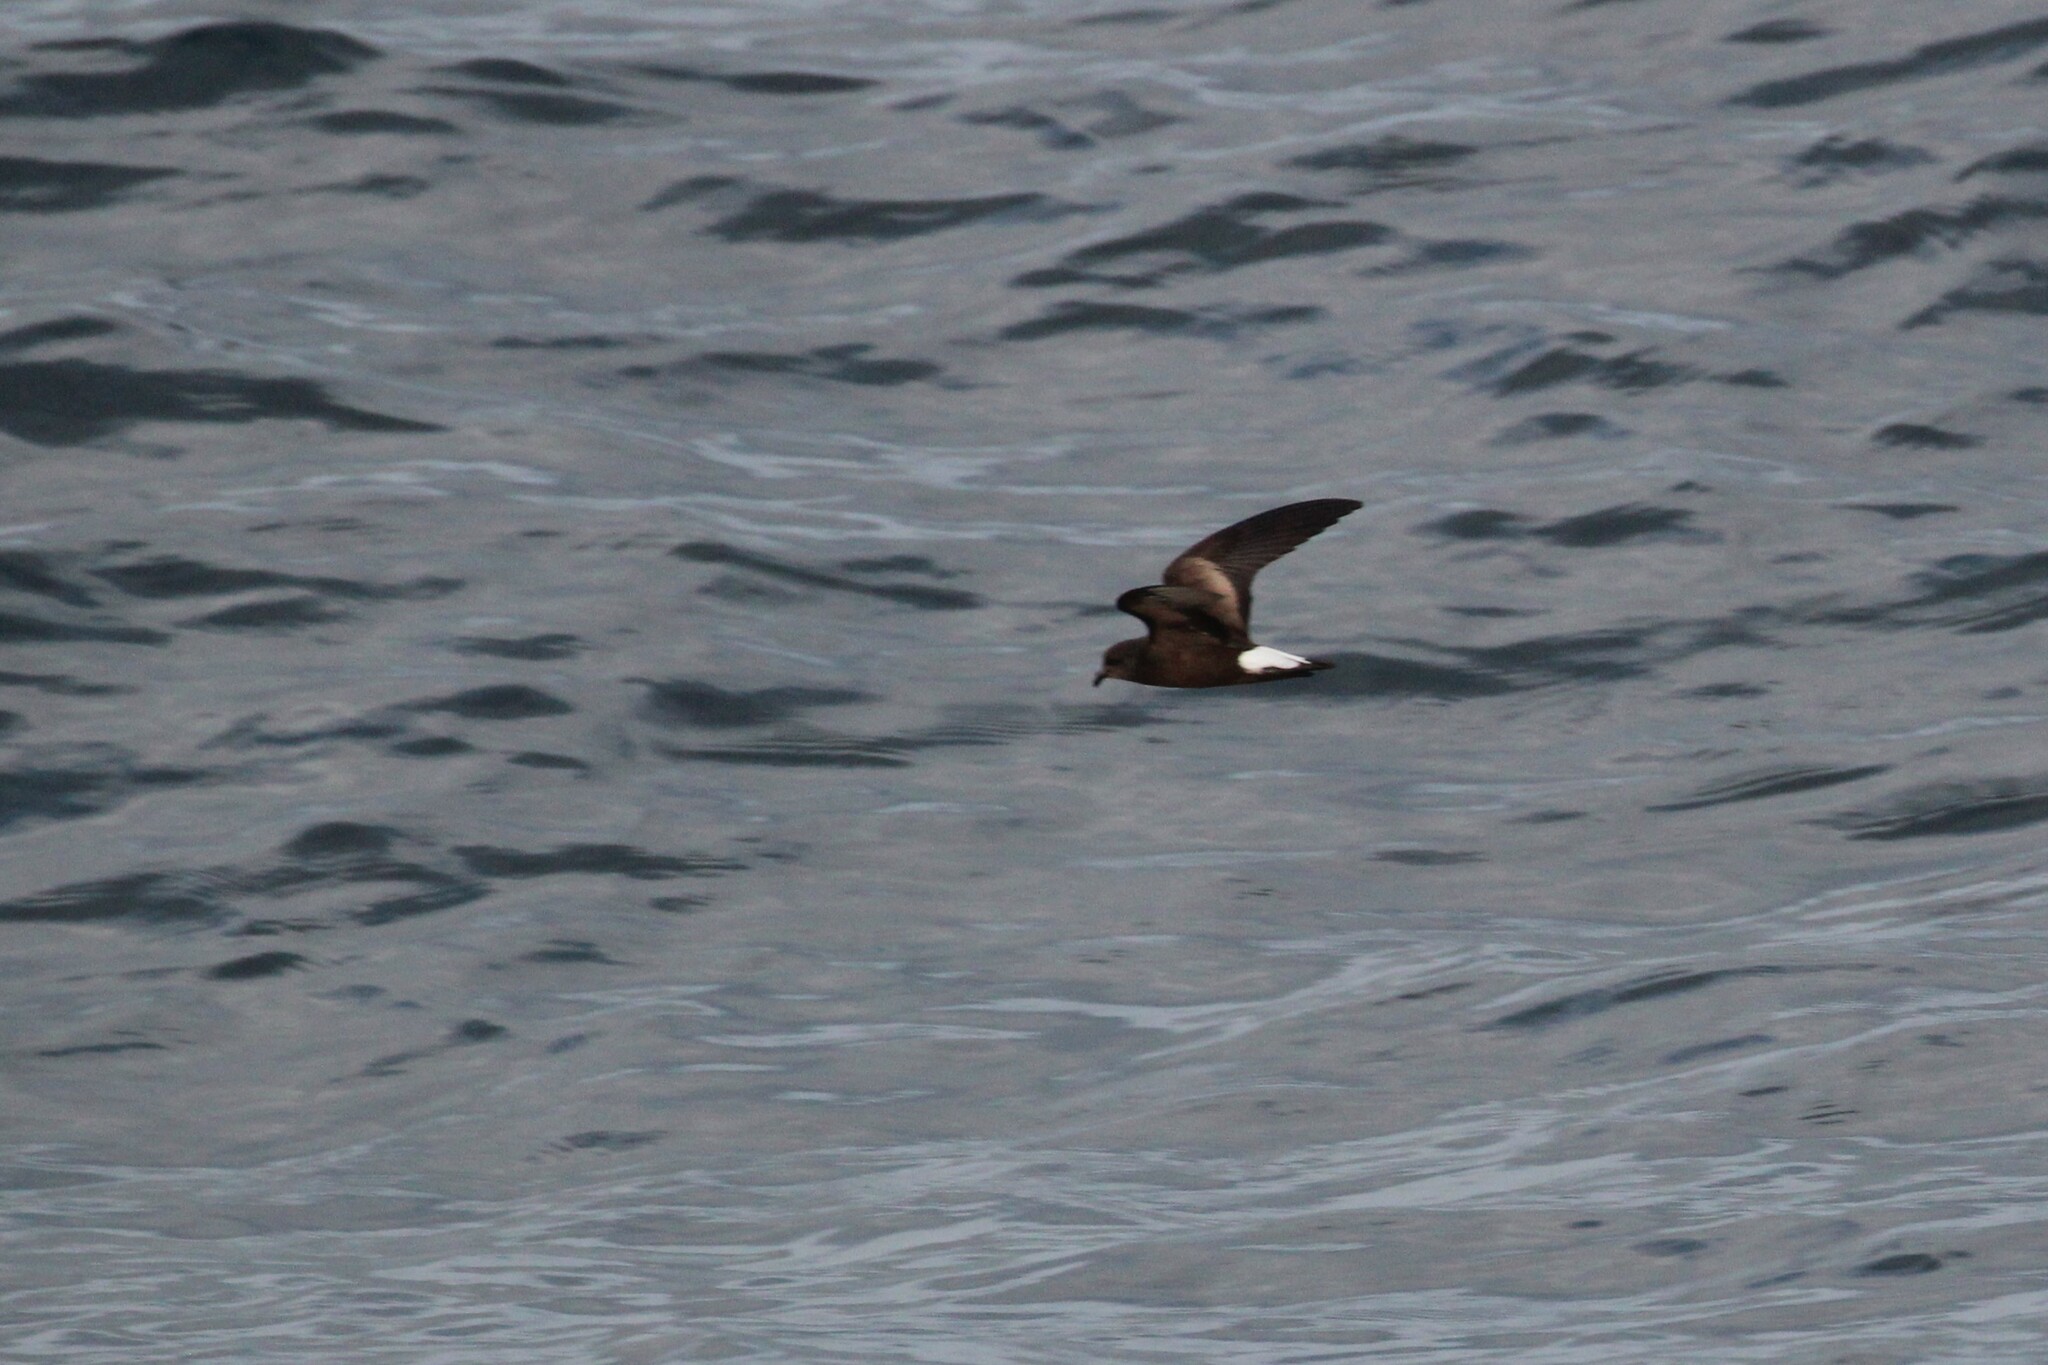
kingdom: Animalia
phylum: Chordata
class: Aves
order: Procellariiformes
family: Hydrobatidae
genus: Oceanodroma
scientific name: Oceanodroma tethys
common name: Wedge-rumped storm-petrel
